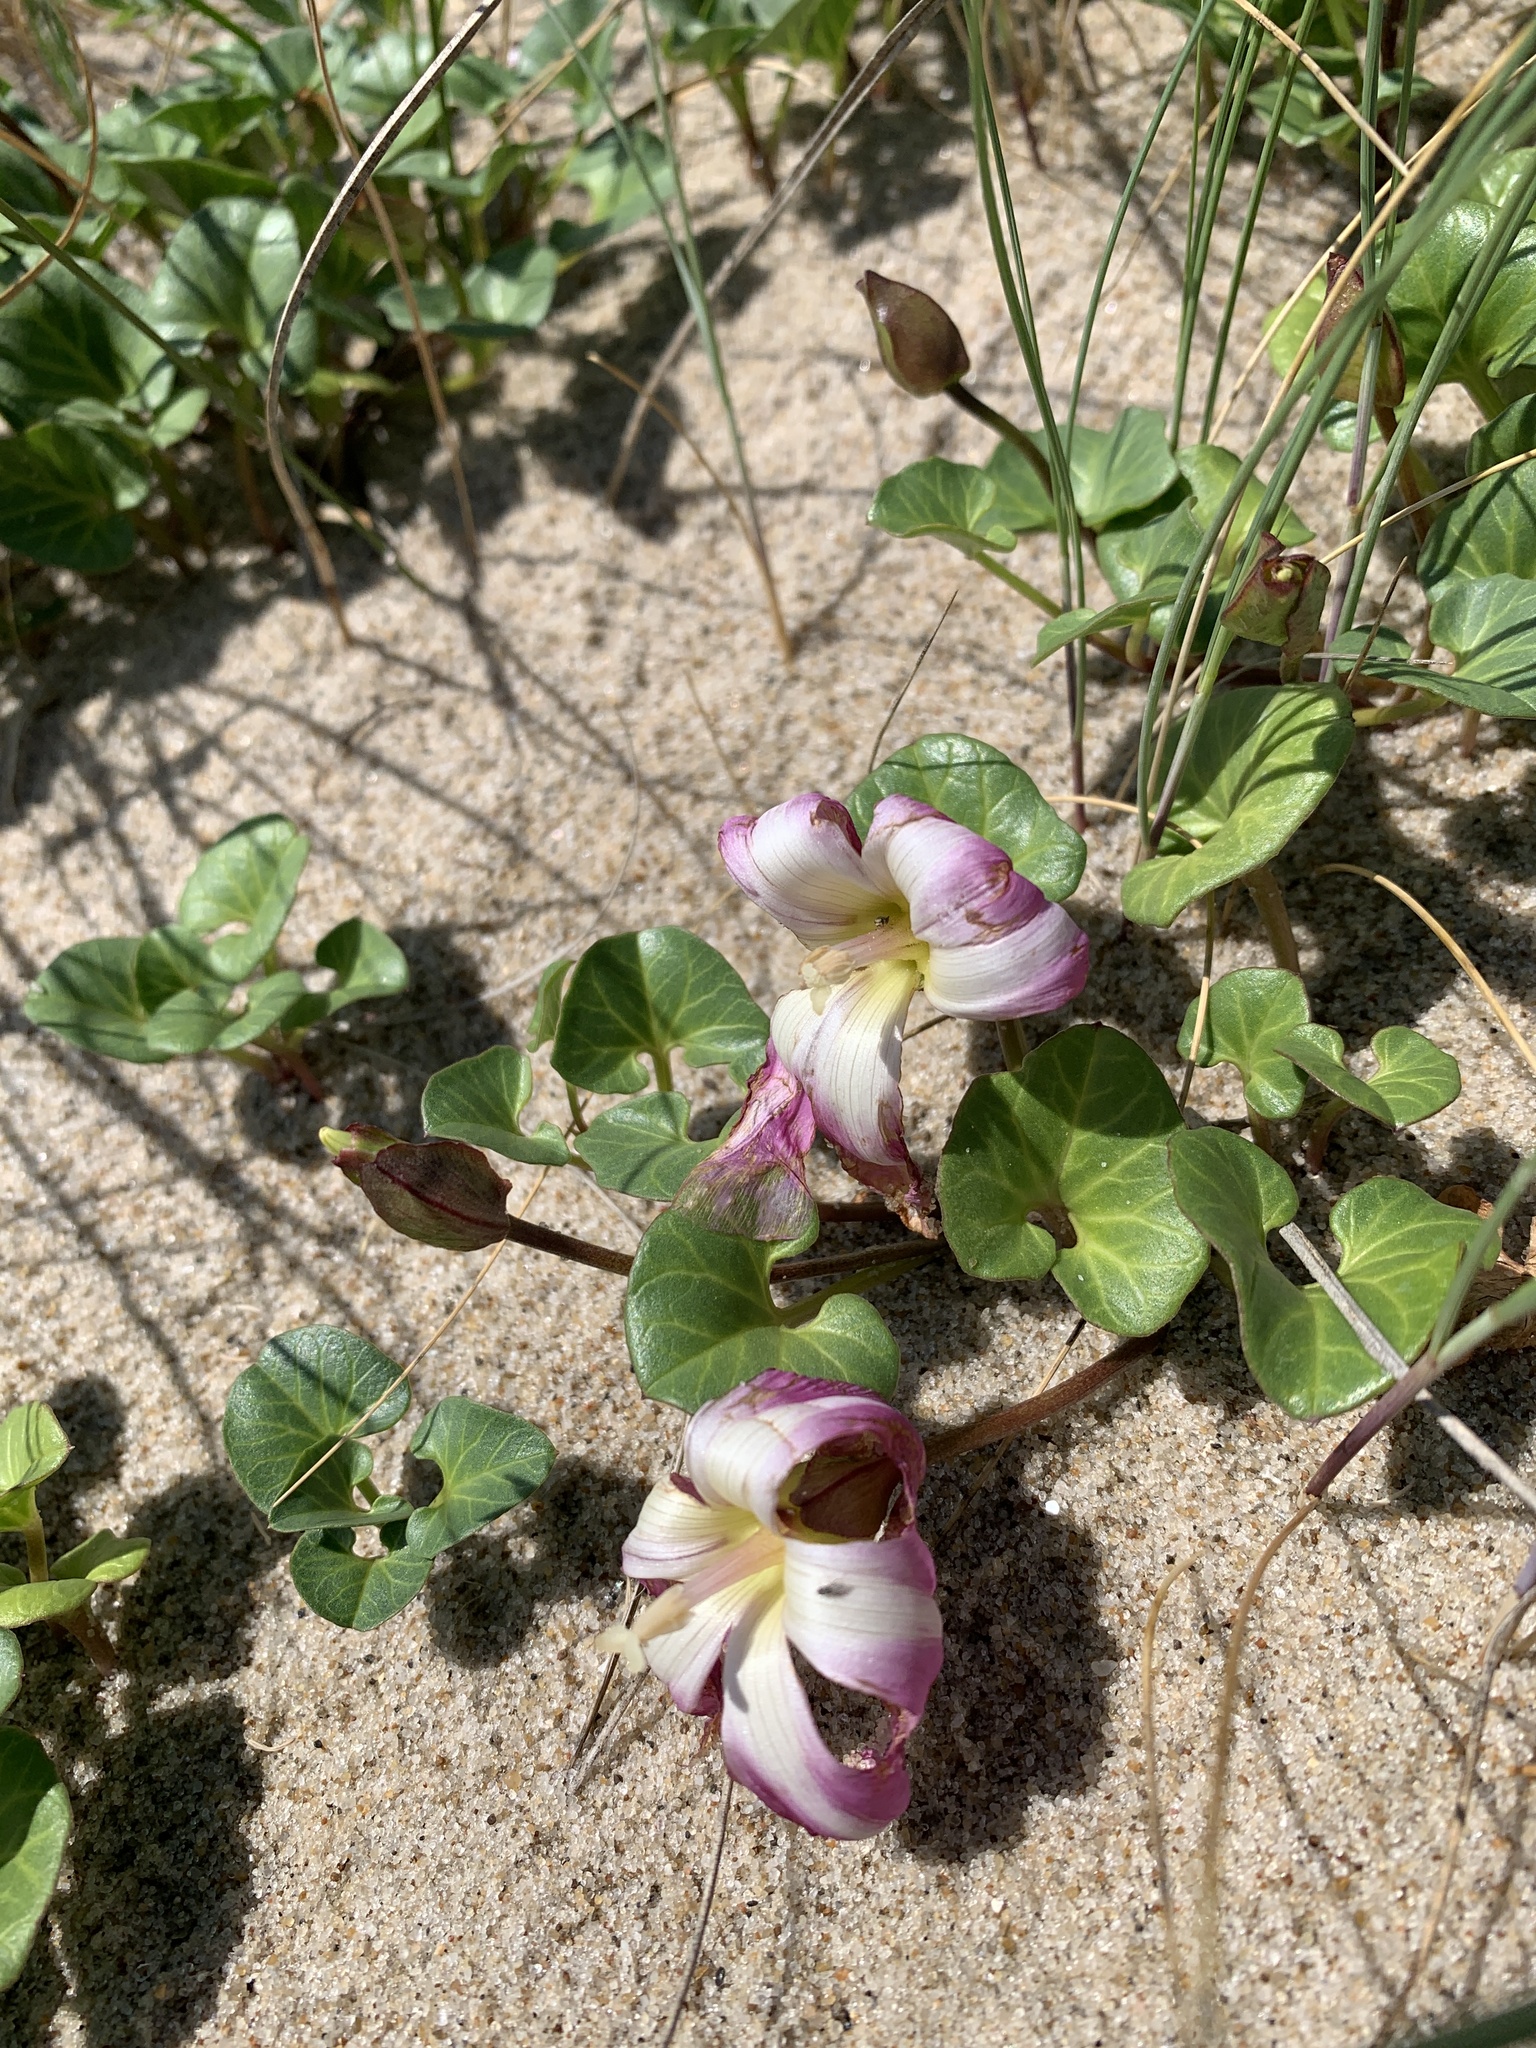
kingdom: Plantae
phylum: Tracheophyta
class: Magnoliopsida
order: Solanales
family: Convolvulaceae
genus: Calystegia
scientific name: Calystegia soldanella
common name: Sea bindweed
